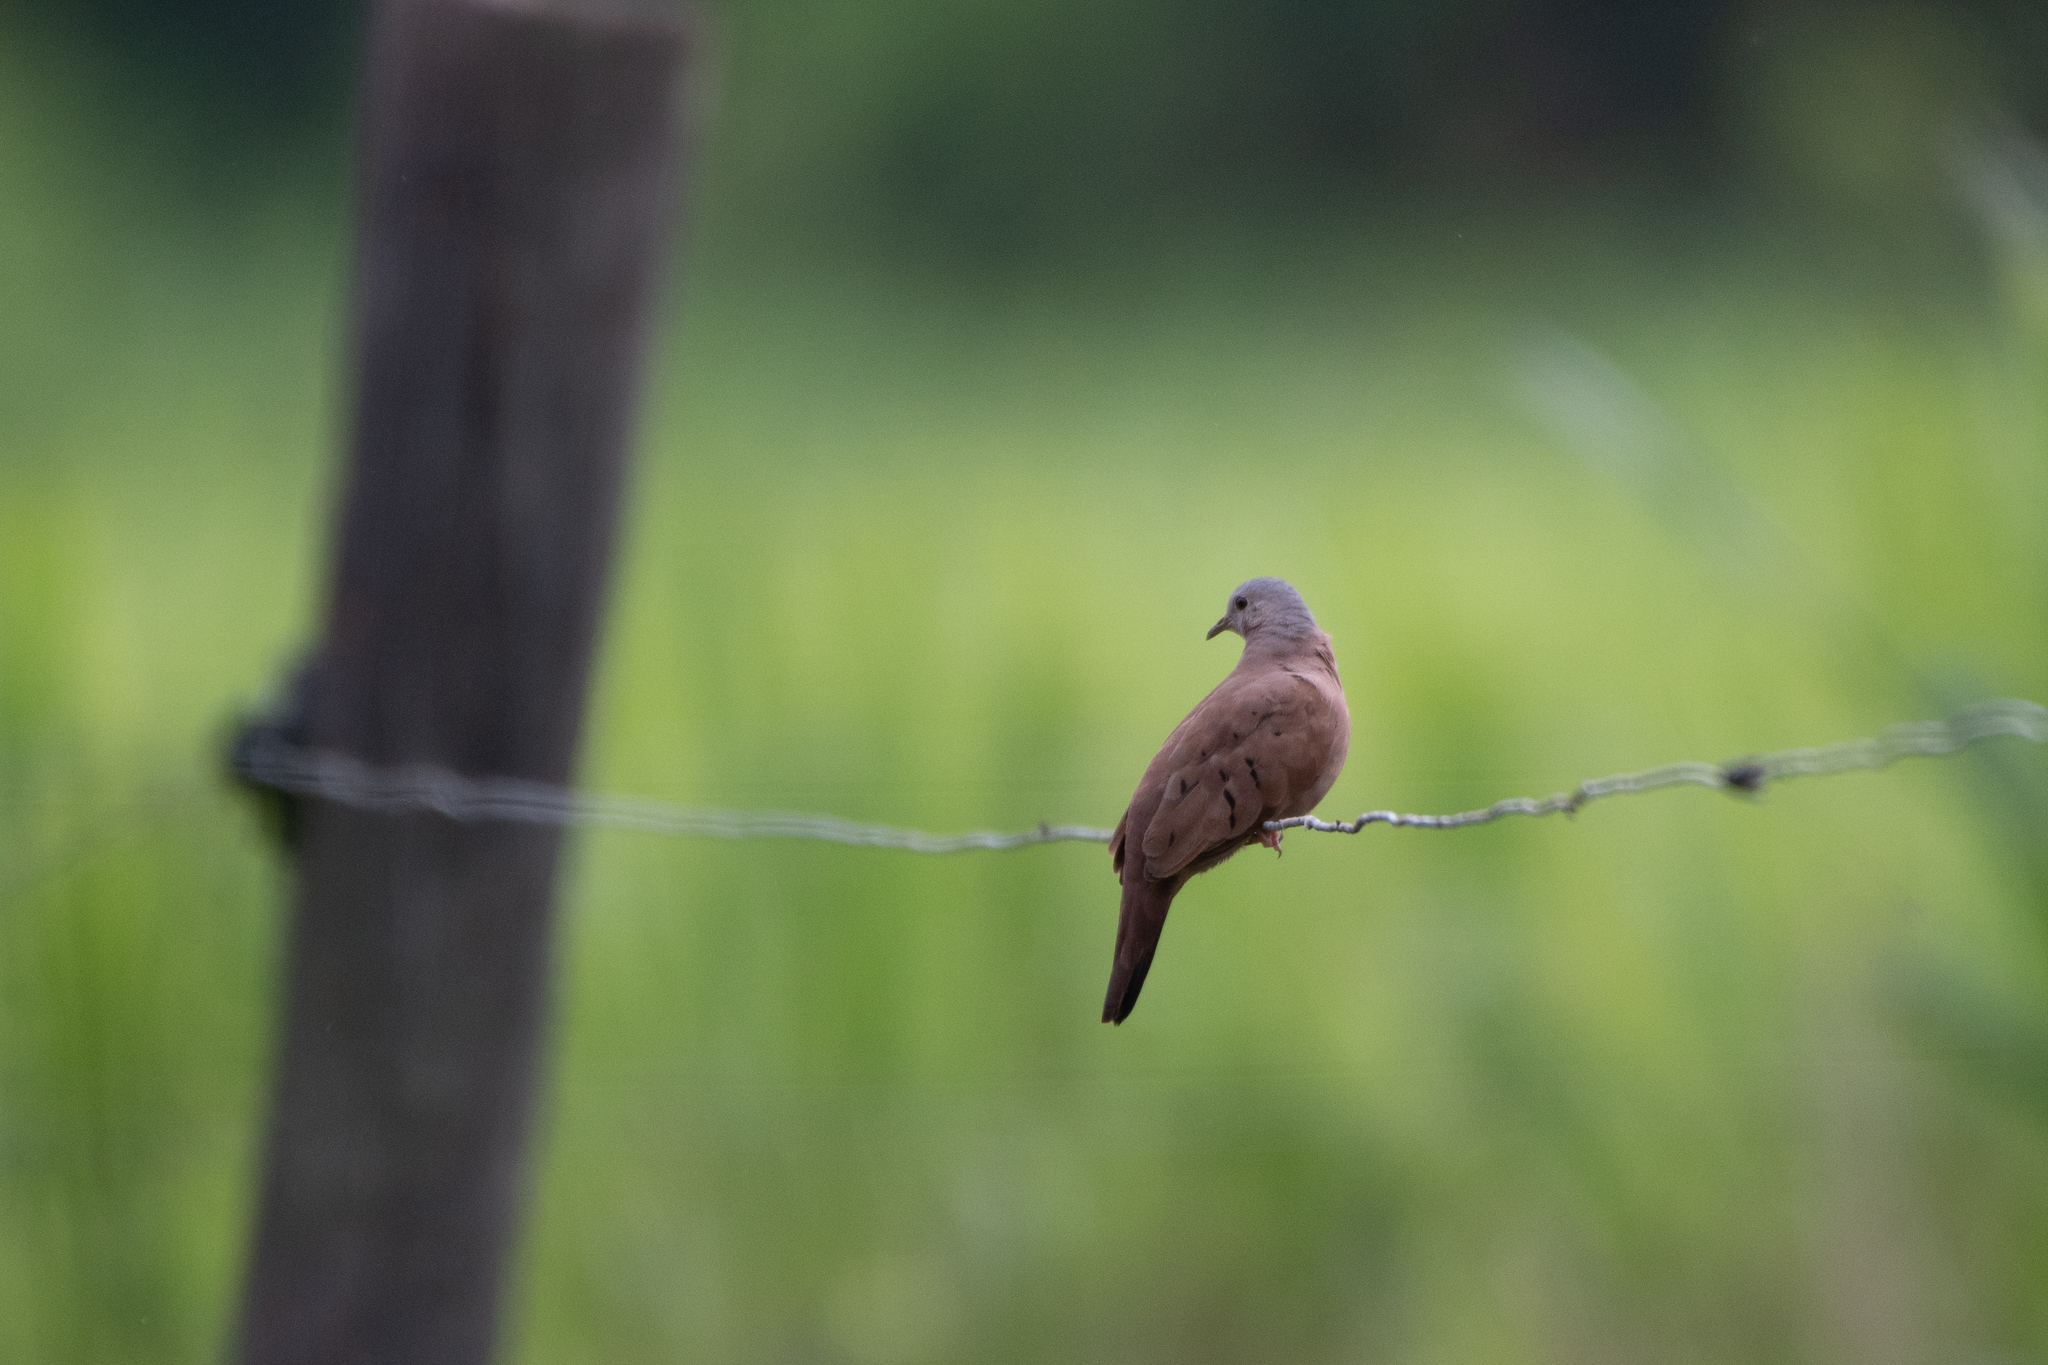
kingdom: Animalia
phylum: Chordata
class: Aves
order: Columbiformes
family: Columbidae
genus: Columbina
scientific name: Columbina talpacoti
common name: Ruddy ground dove
